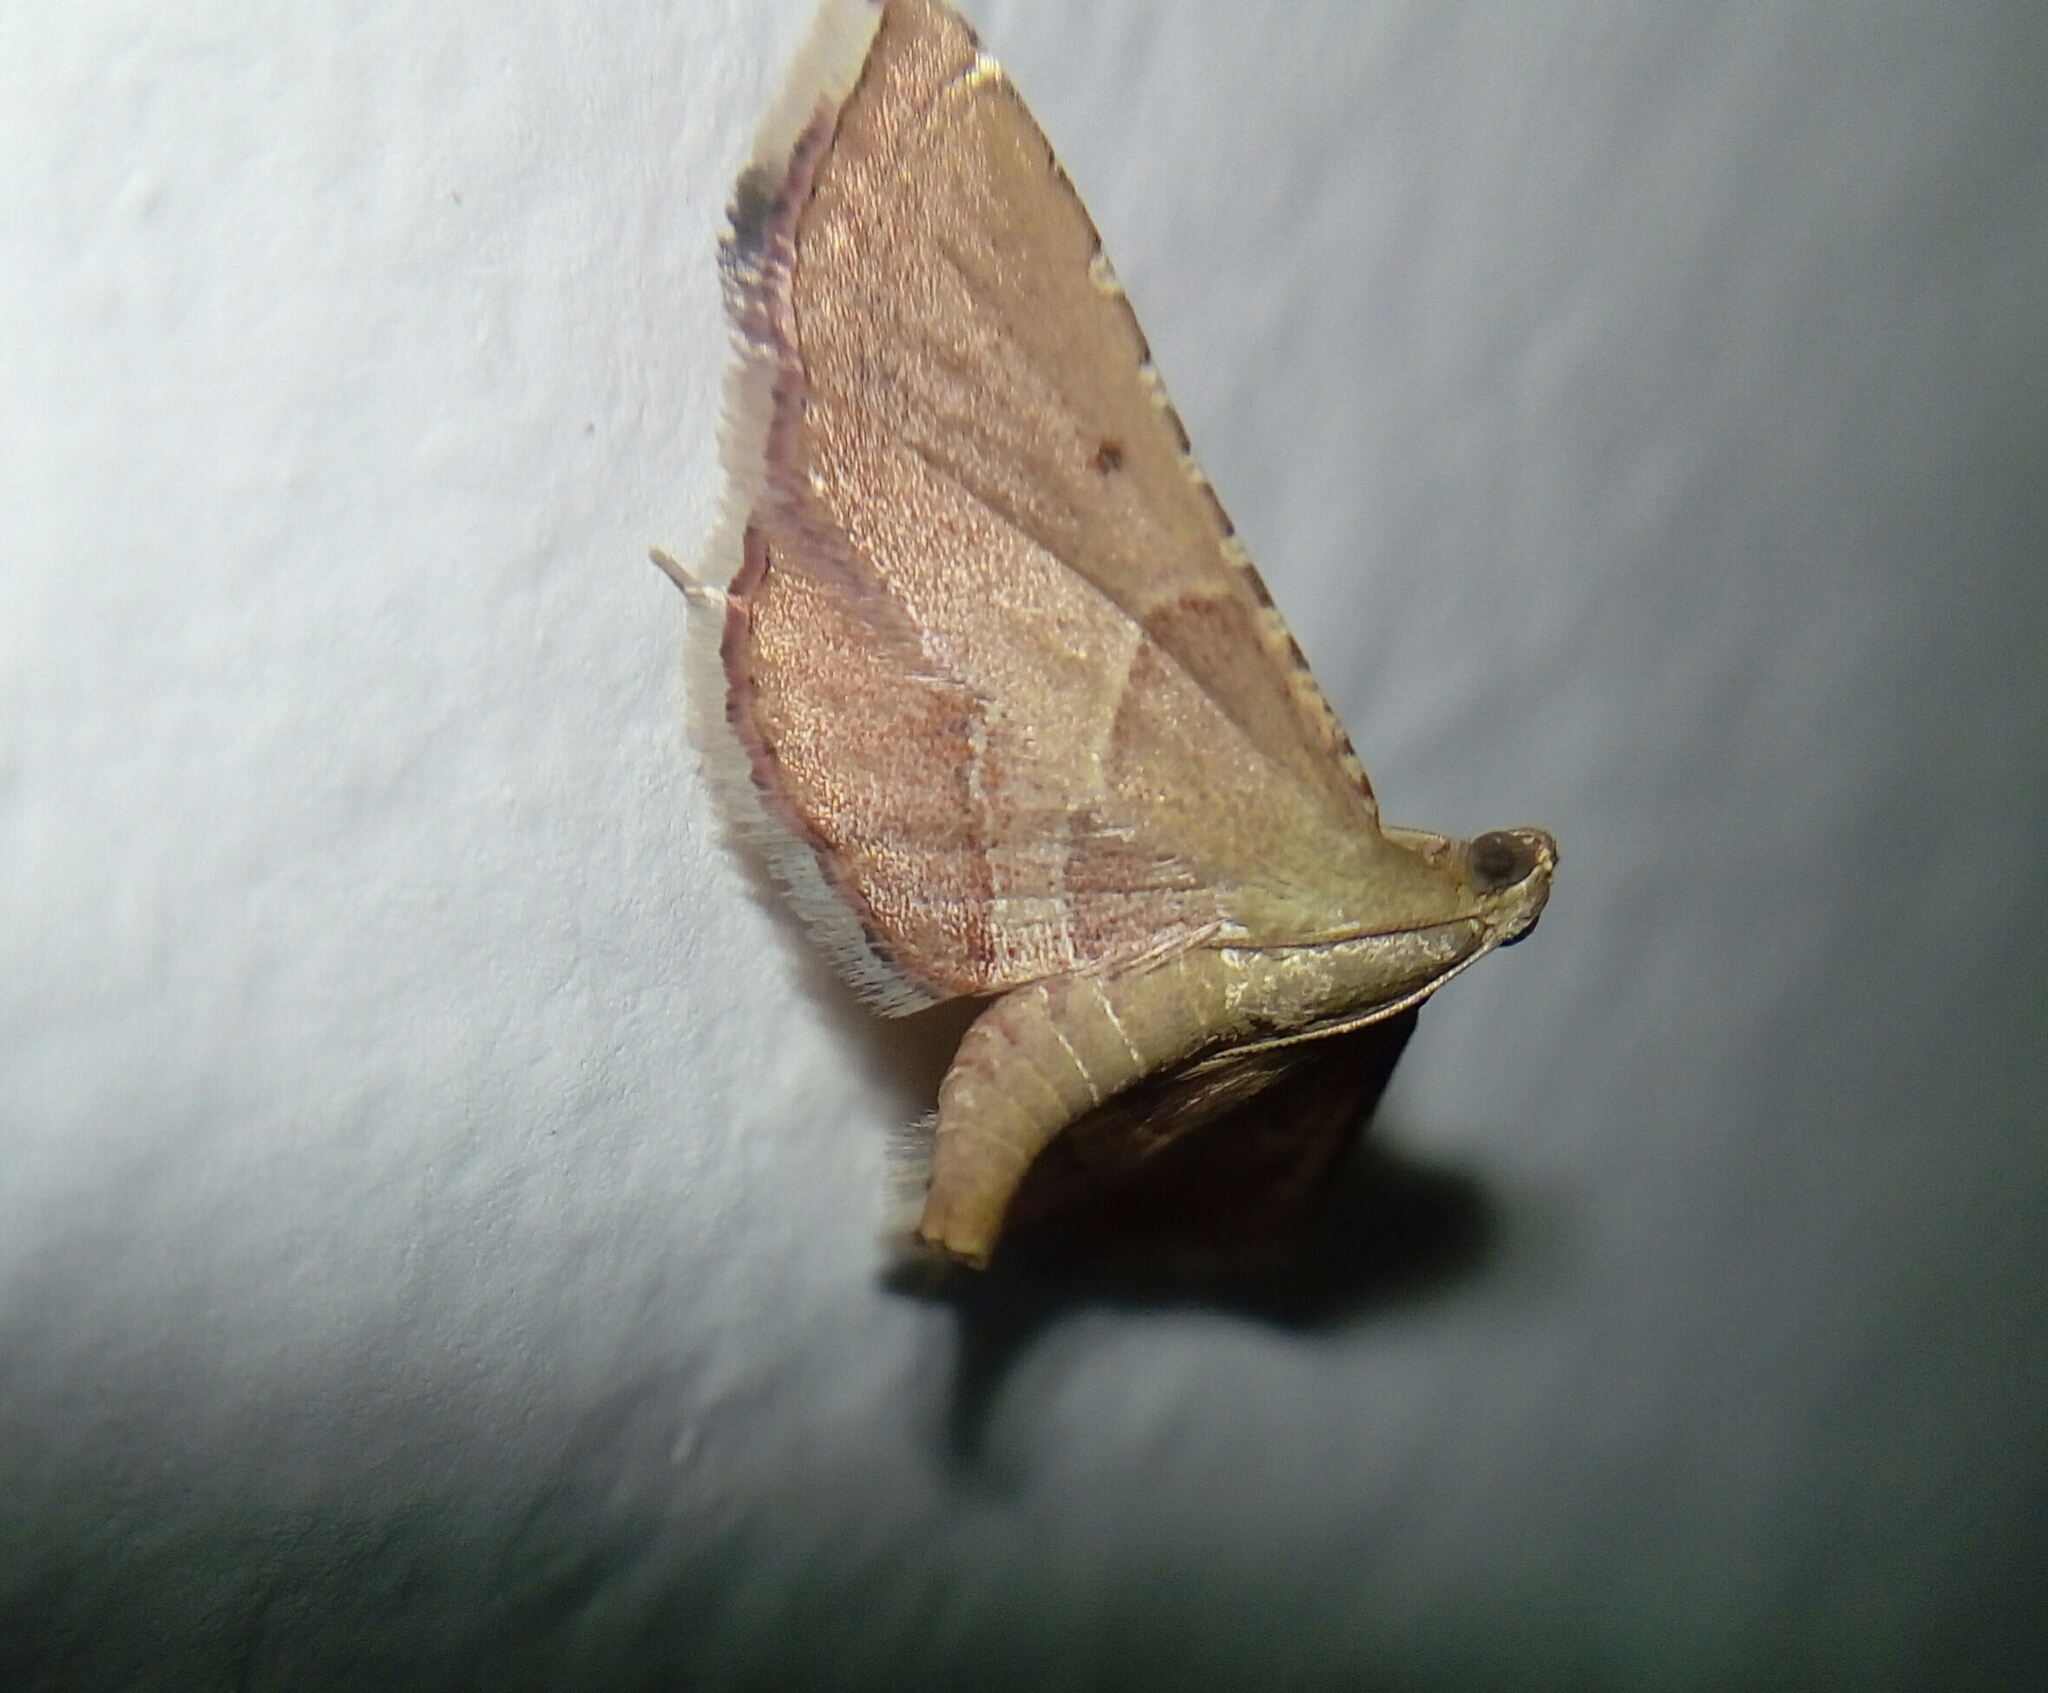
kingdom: Animalia
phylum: Arthropoda
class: Insecta
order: Lepidoptera
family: Pyralidae
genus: Endotricha
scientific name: Endotricha flammealis
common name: Rosy tabby
